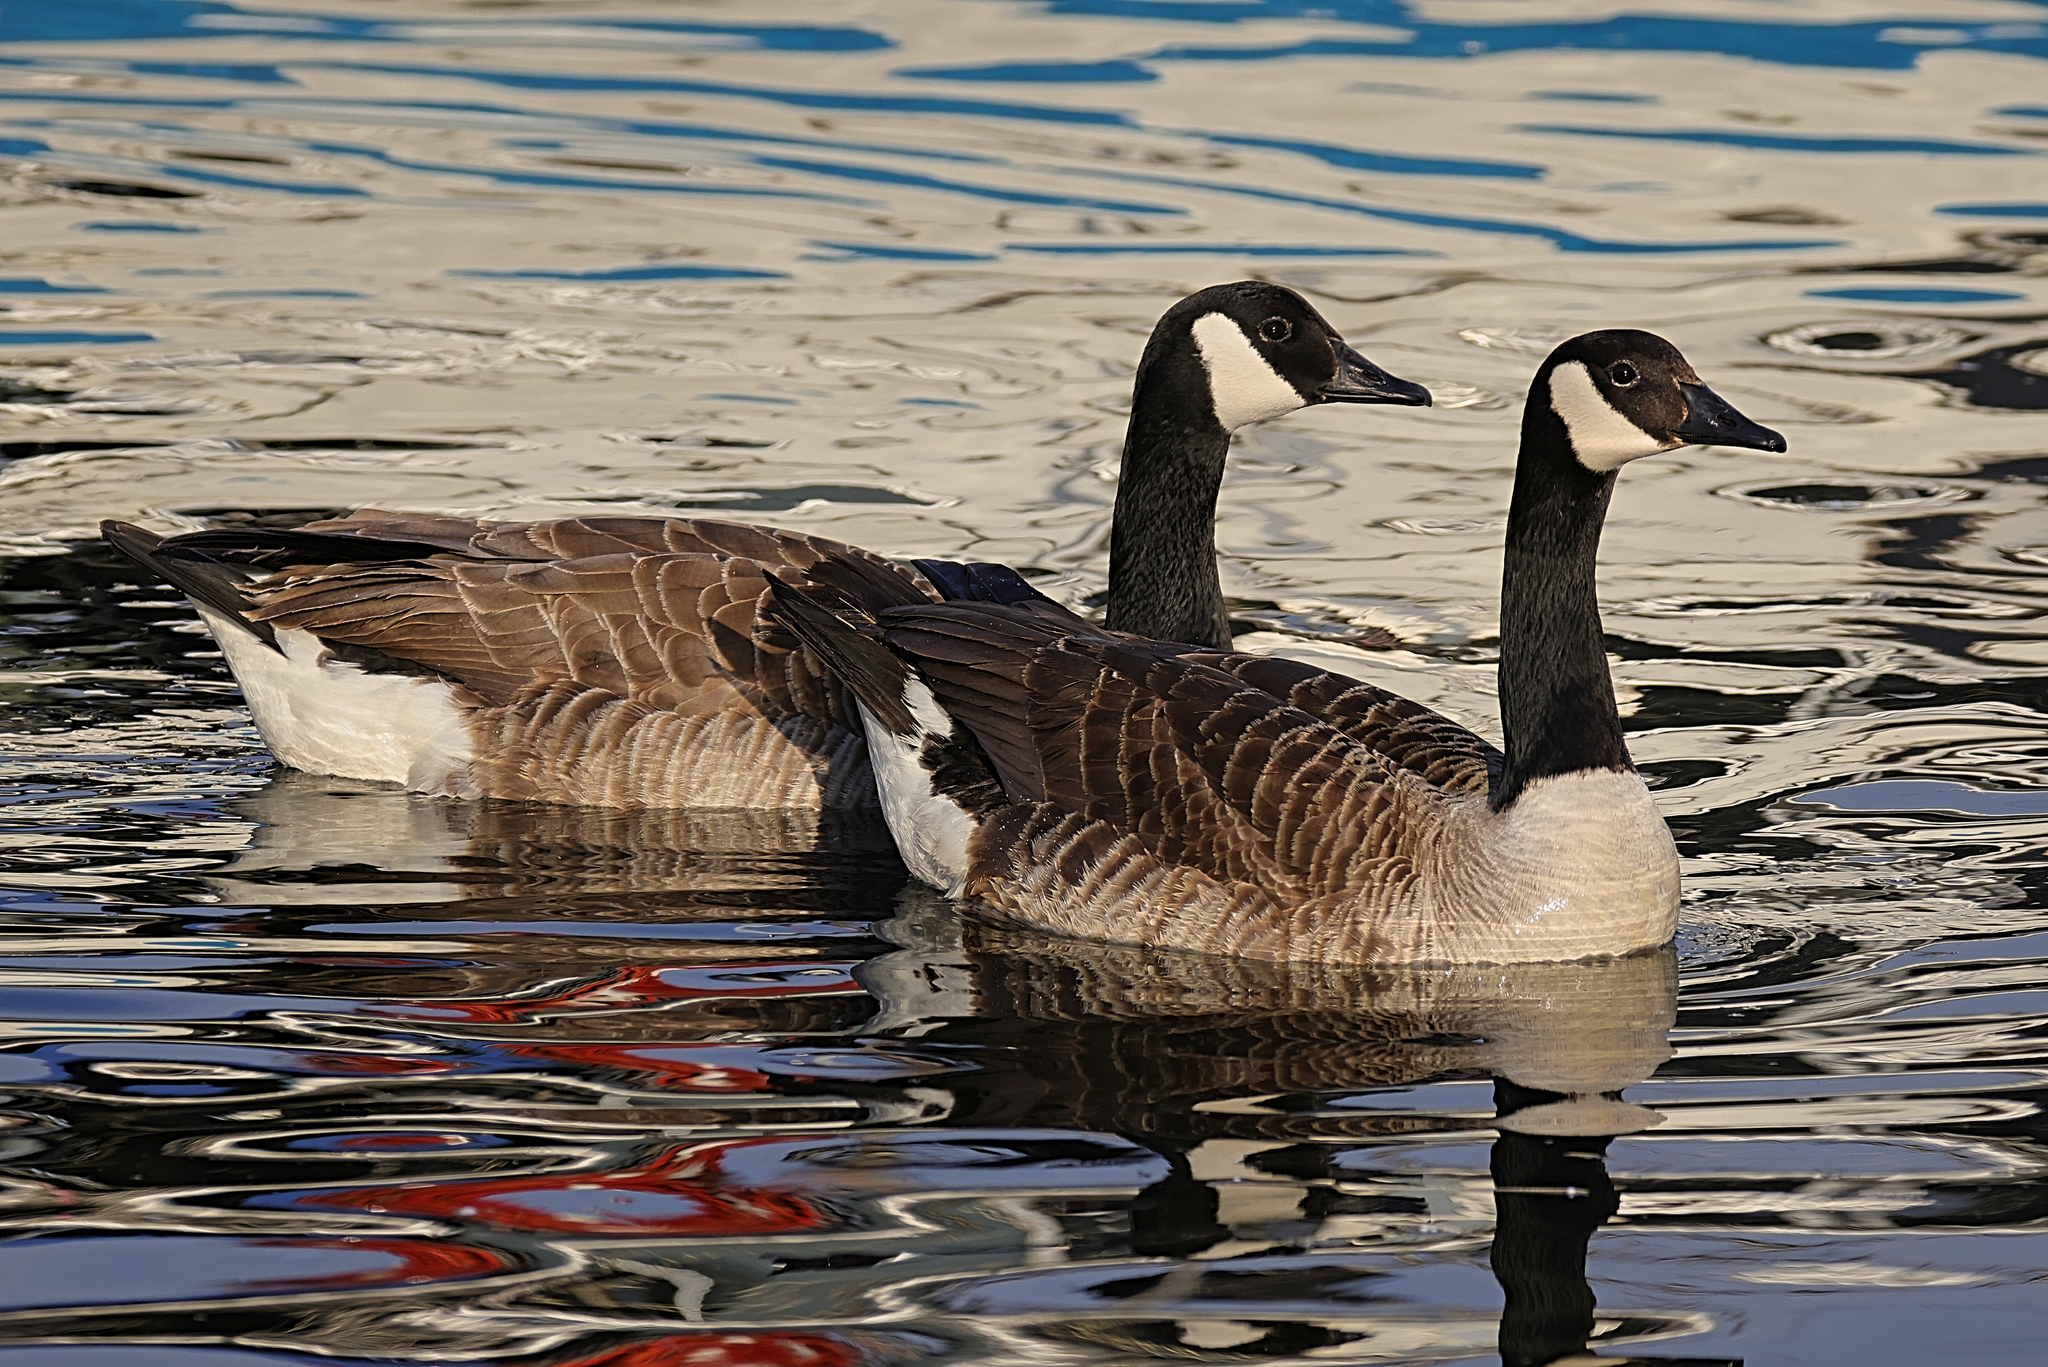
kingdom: Animalia
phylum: Chordata
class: Aves
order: Anseriformes
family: Anatidae
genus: Branta
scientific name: Branta canadensis
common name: Canada goose
